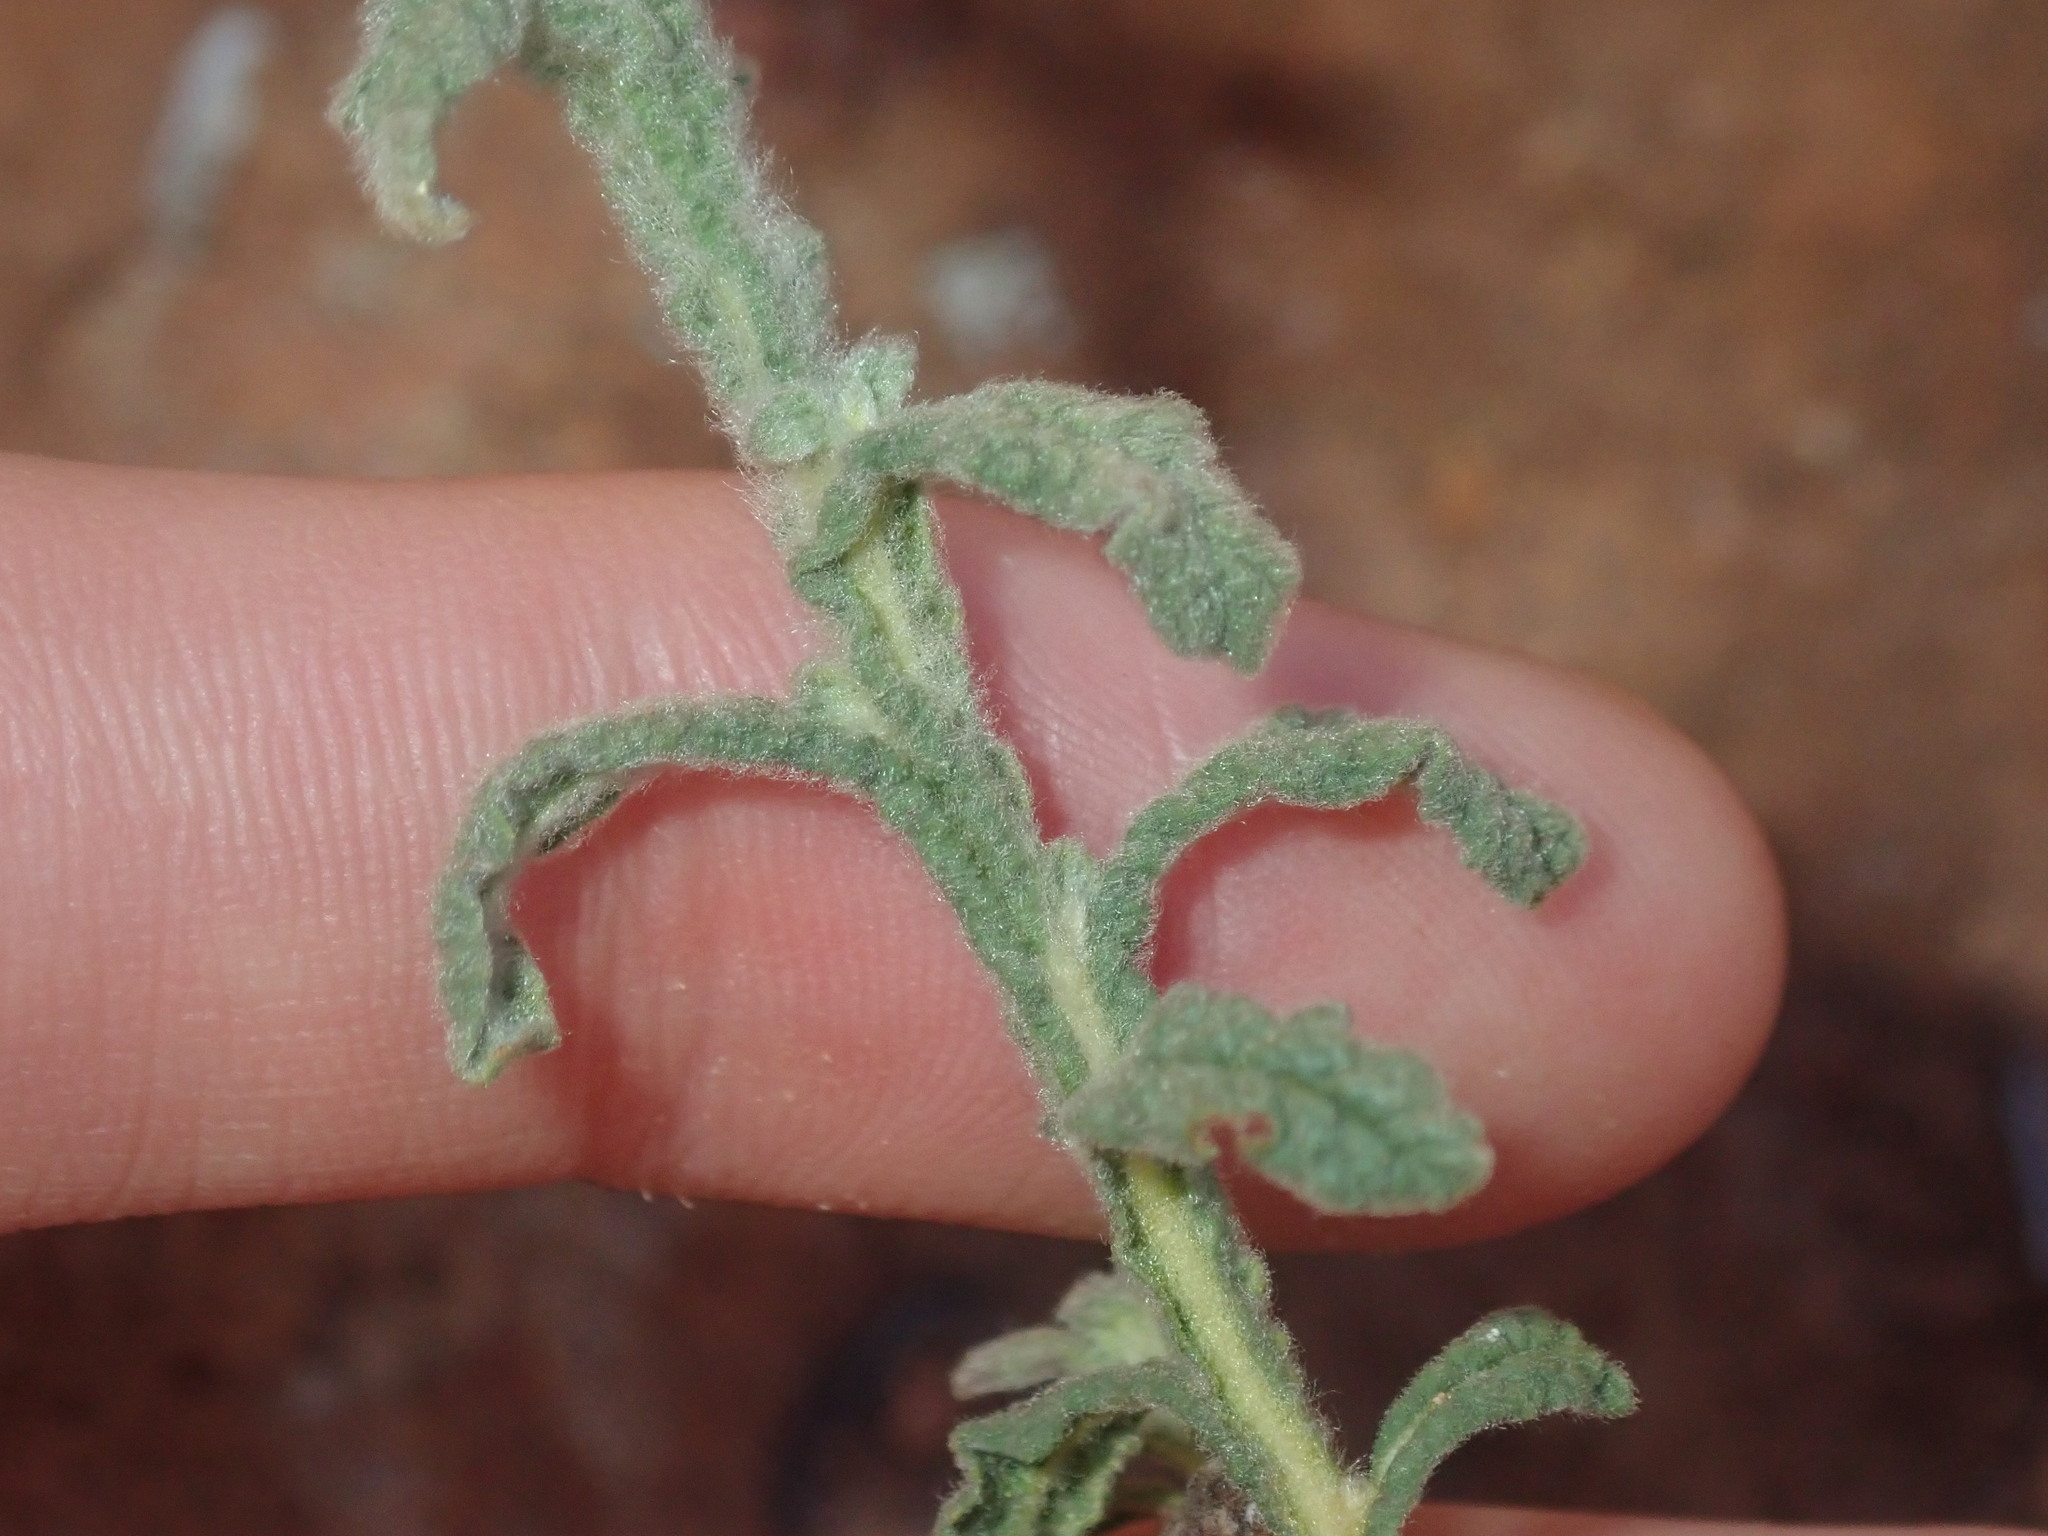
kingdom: Plantae
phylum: Tracheophyta
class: Magnoliopsida
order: Asterales
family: Asteraceae
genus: Pterocaulon
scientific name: Pterocaulon sphacelatum
